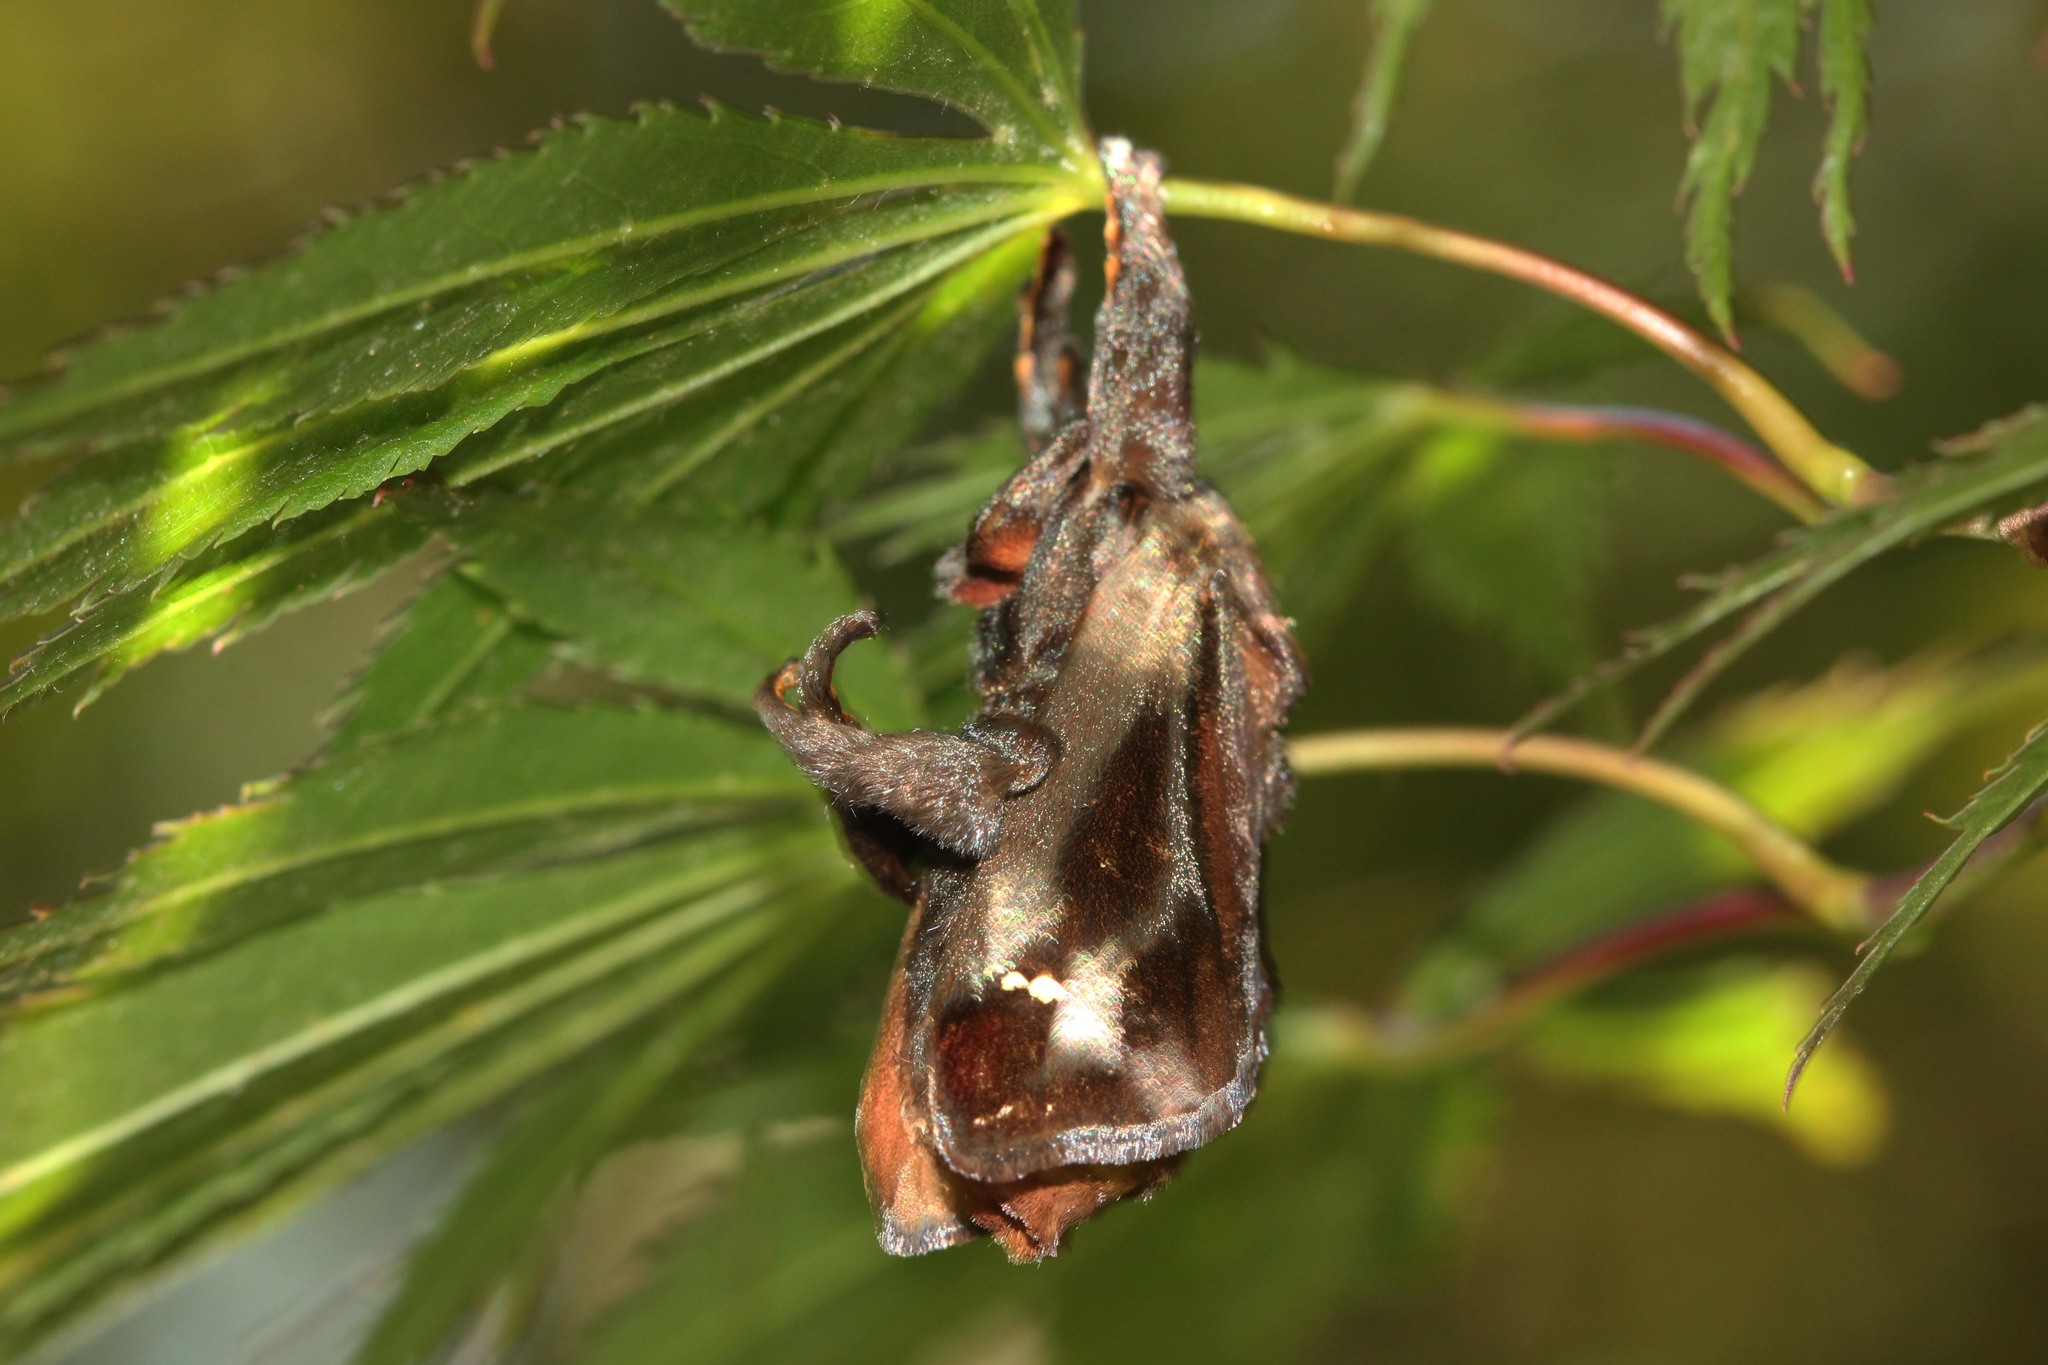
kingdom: Animalia
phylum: Arthropoda
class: Insecta
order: Lepidoptera
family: Limacodidae
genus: Acharia
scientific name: Acharia stimulea
